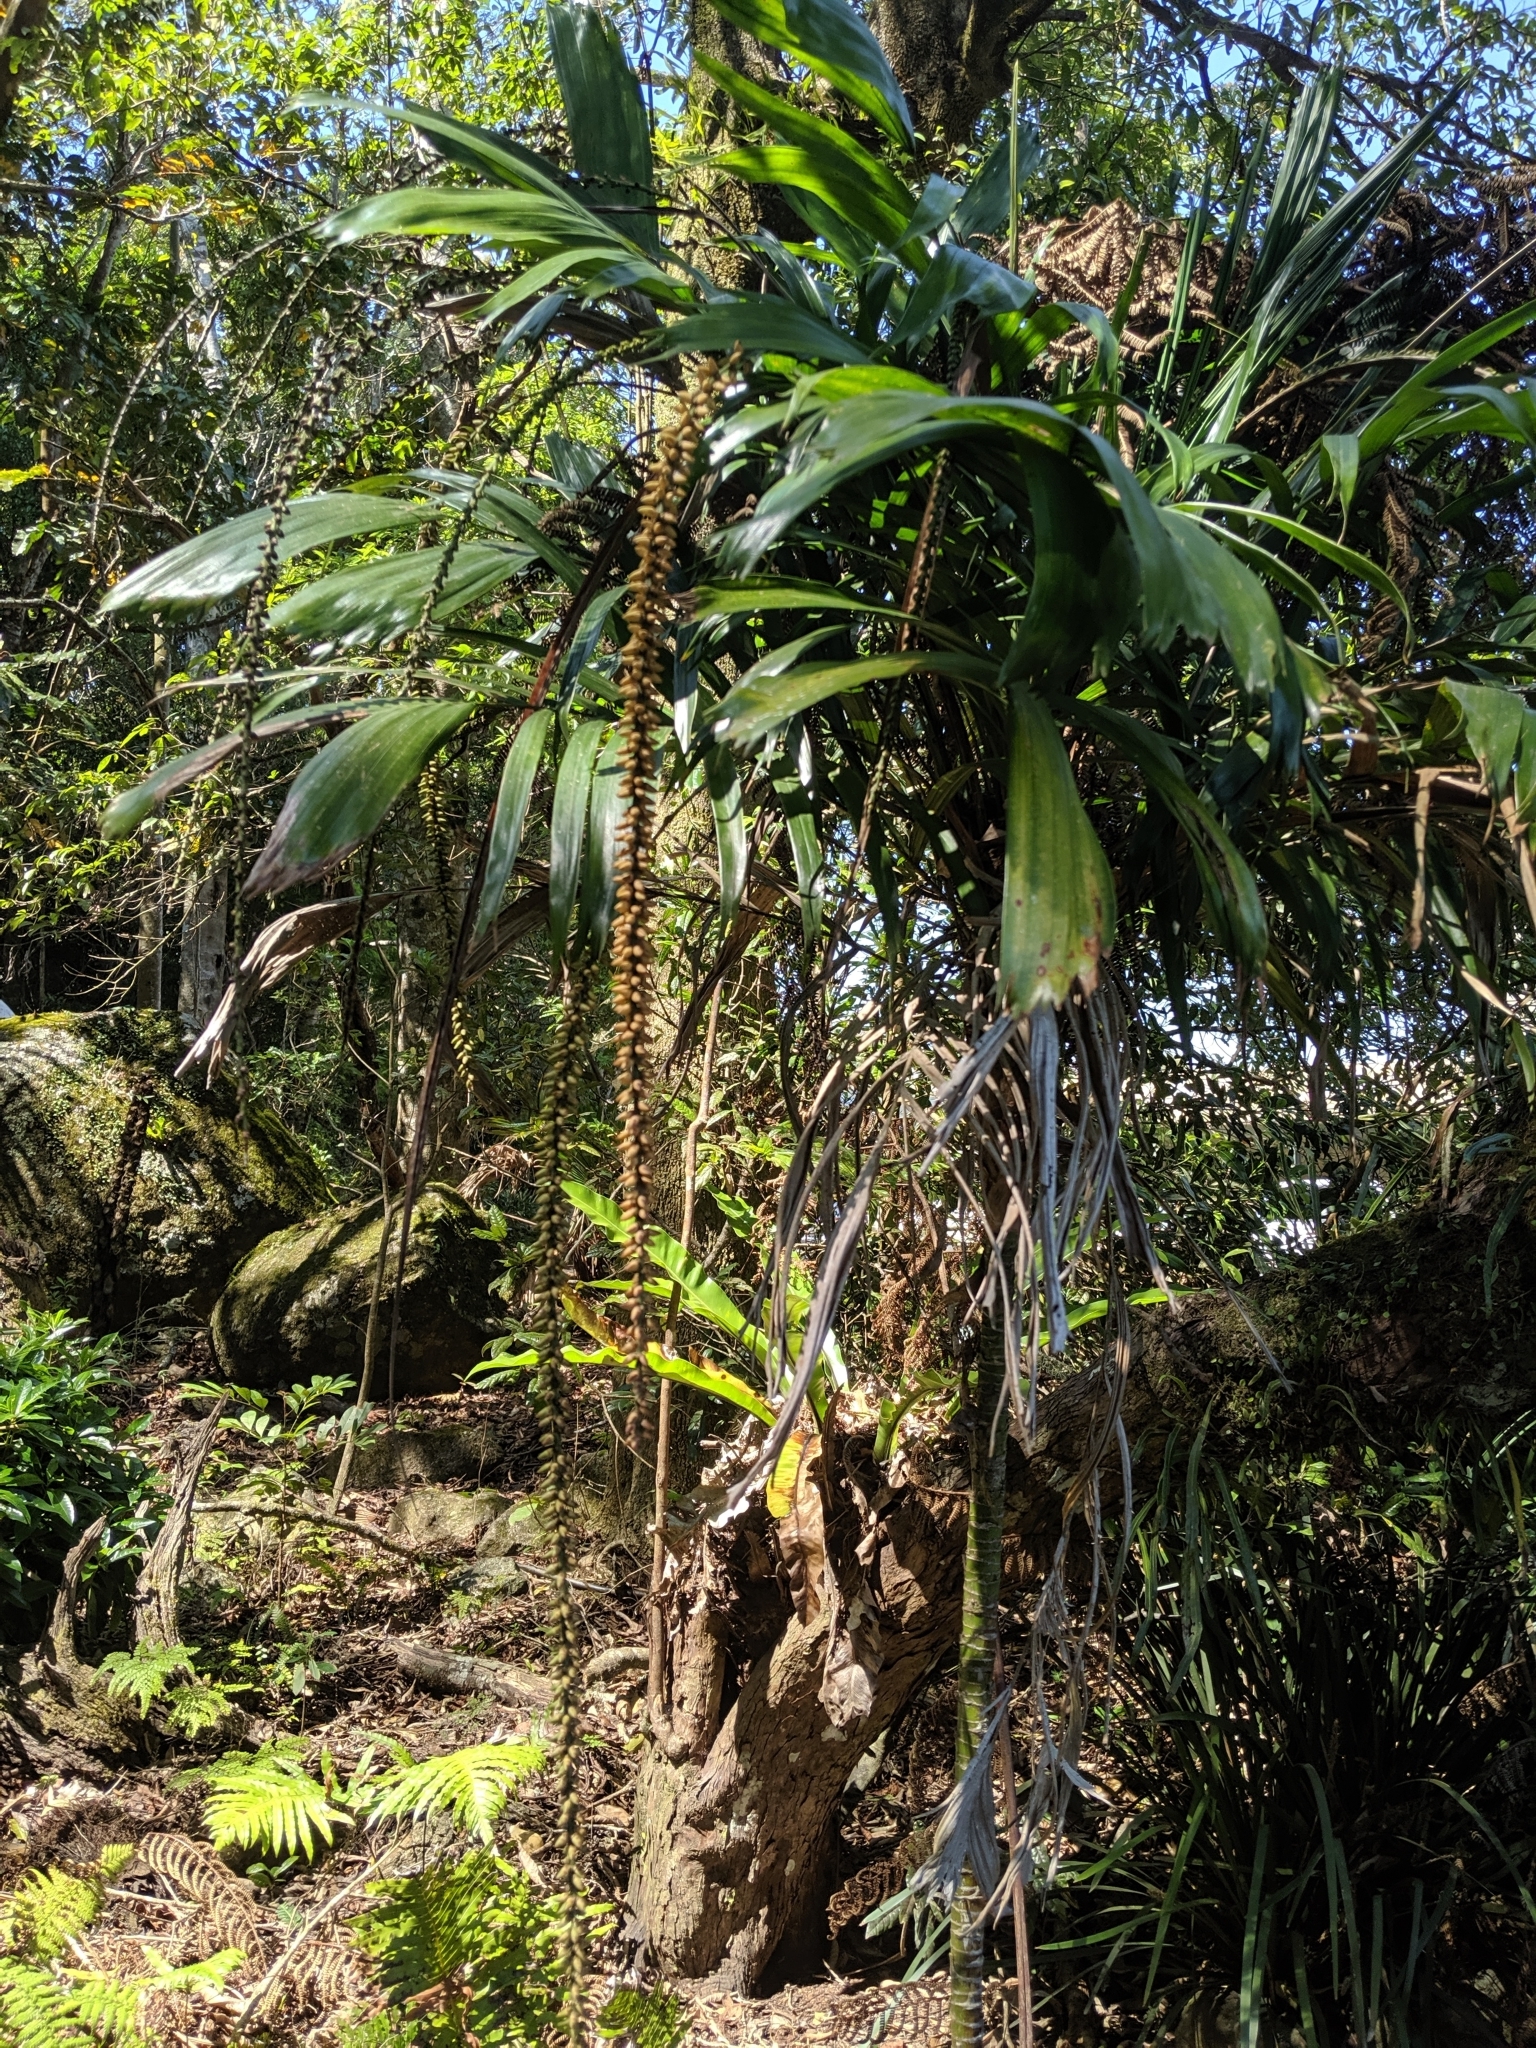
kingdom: Plantae
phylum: Tracheophyta
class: Liliopsida
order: Arecales
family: Arecaceae
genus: Linospadix
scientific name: Linospadix monostachyus
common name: Walking-stick palm
